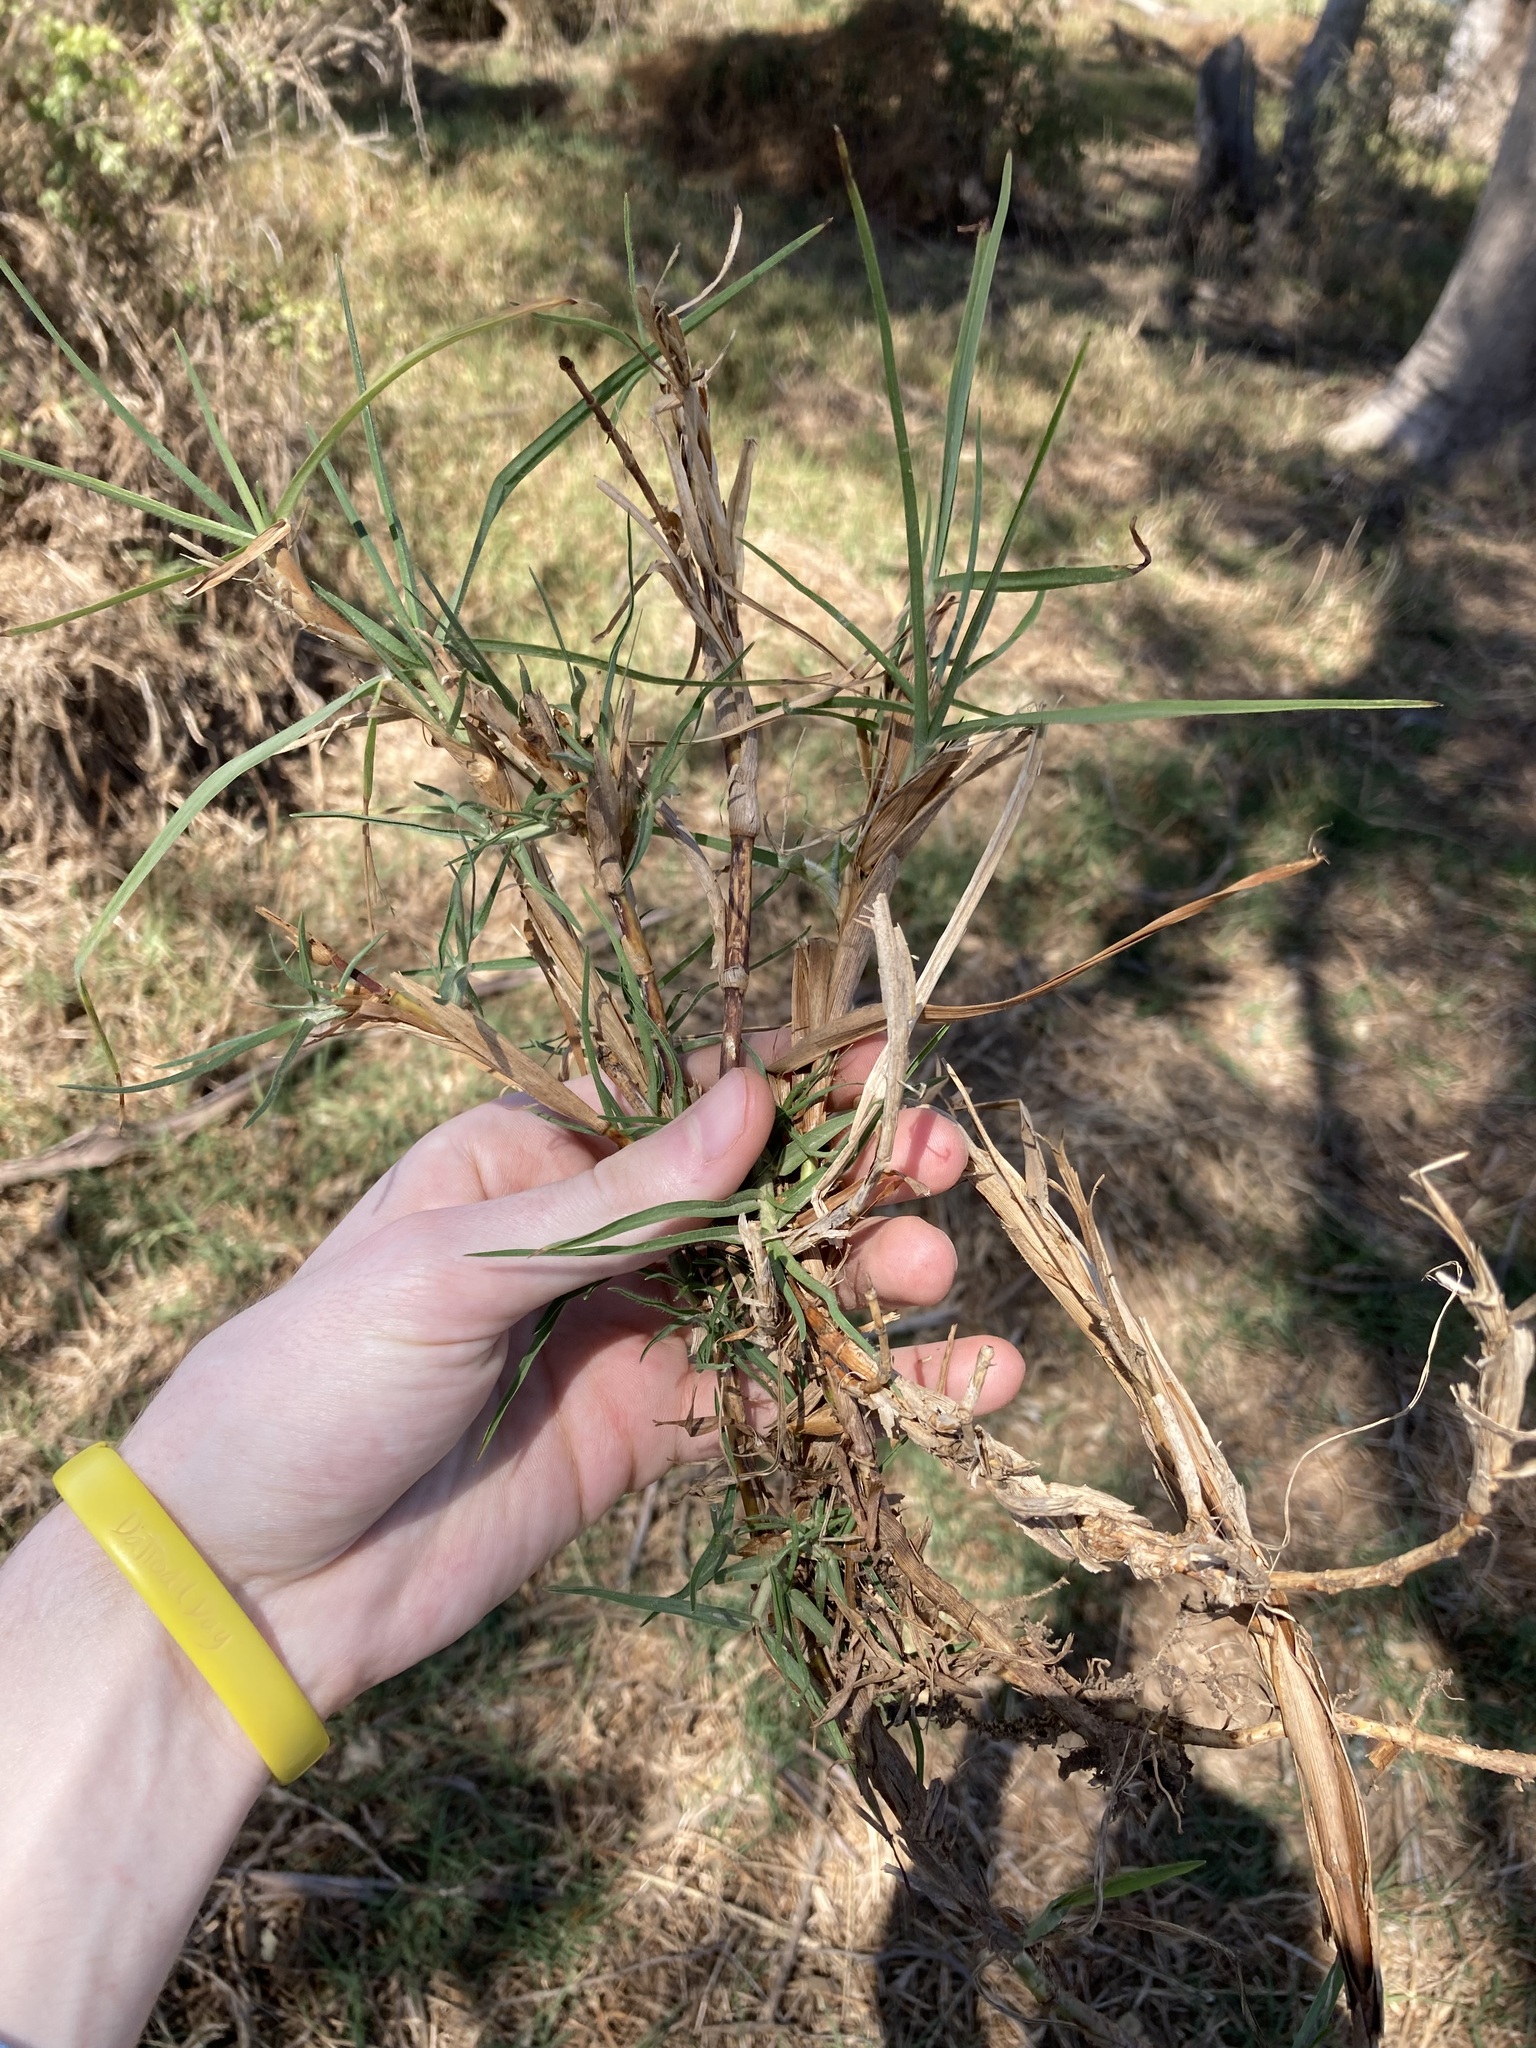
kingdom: Plantae
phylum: Tracheophyta
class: Liliopsida
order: Poales
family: Poaceae
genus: Cenchrus
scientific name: Cenchrus clandestinus
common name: Kikuyugrass
